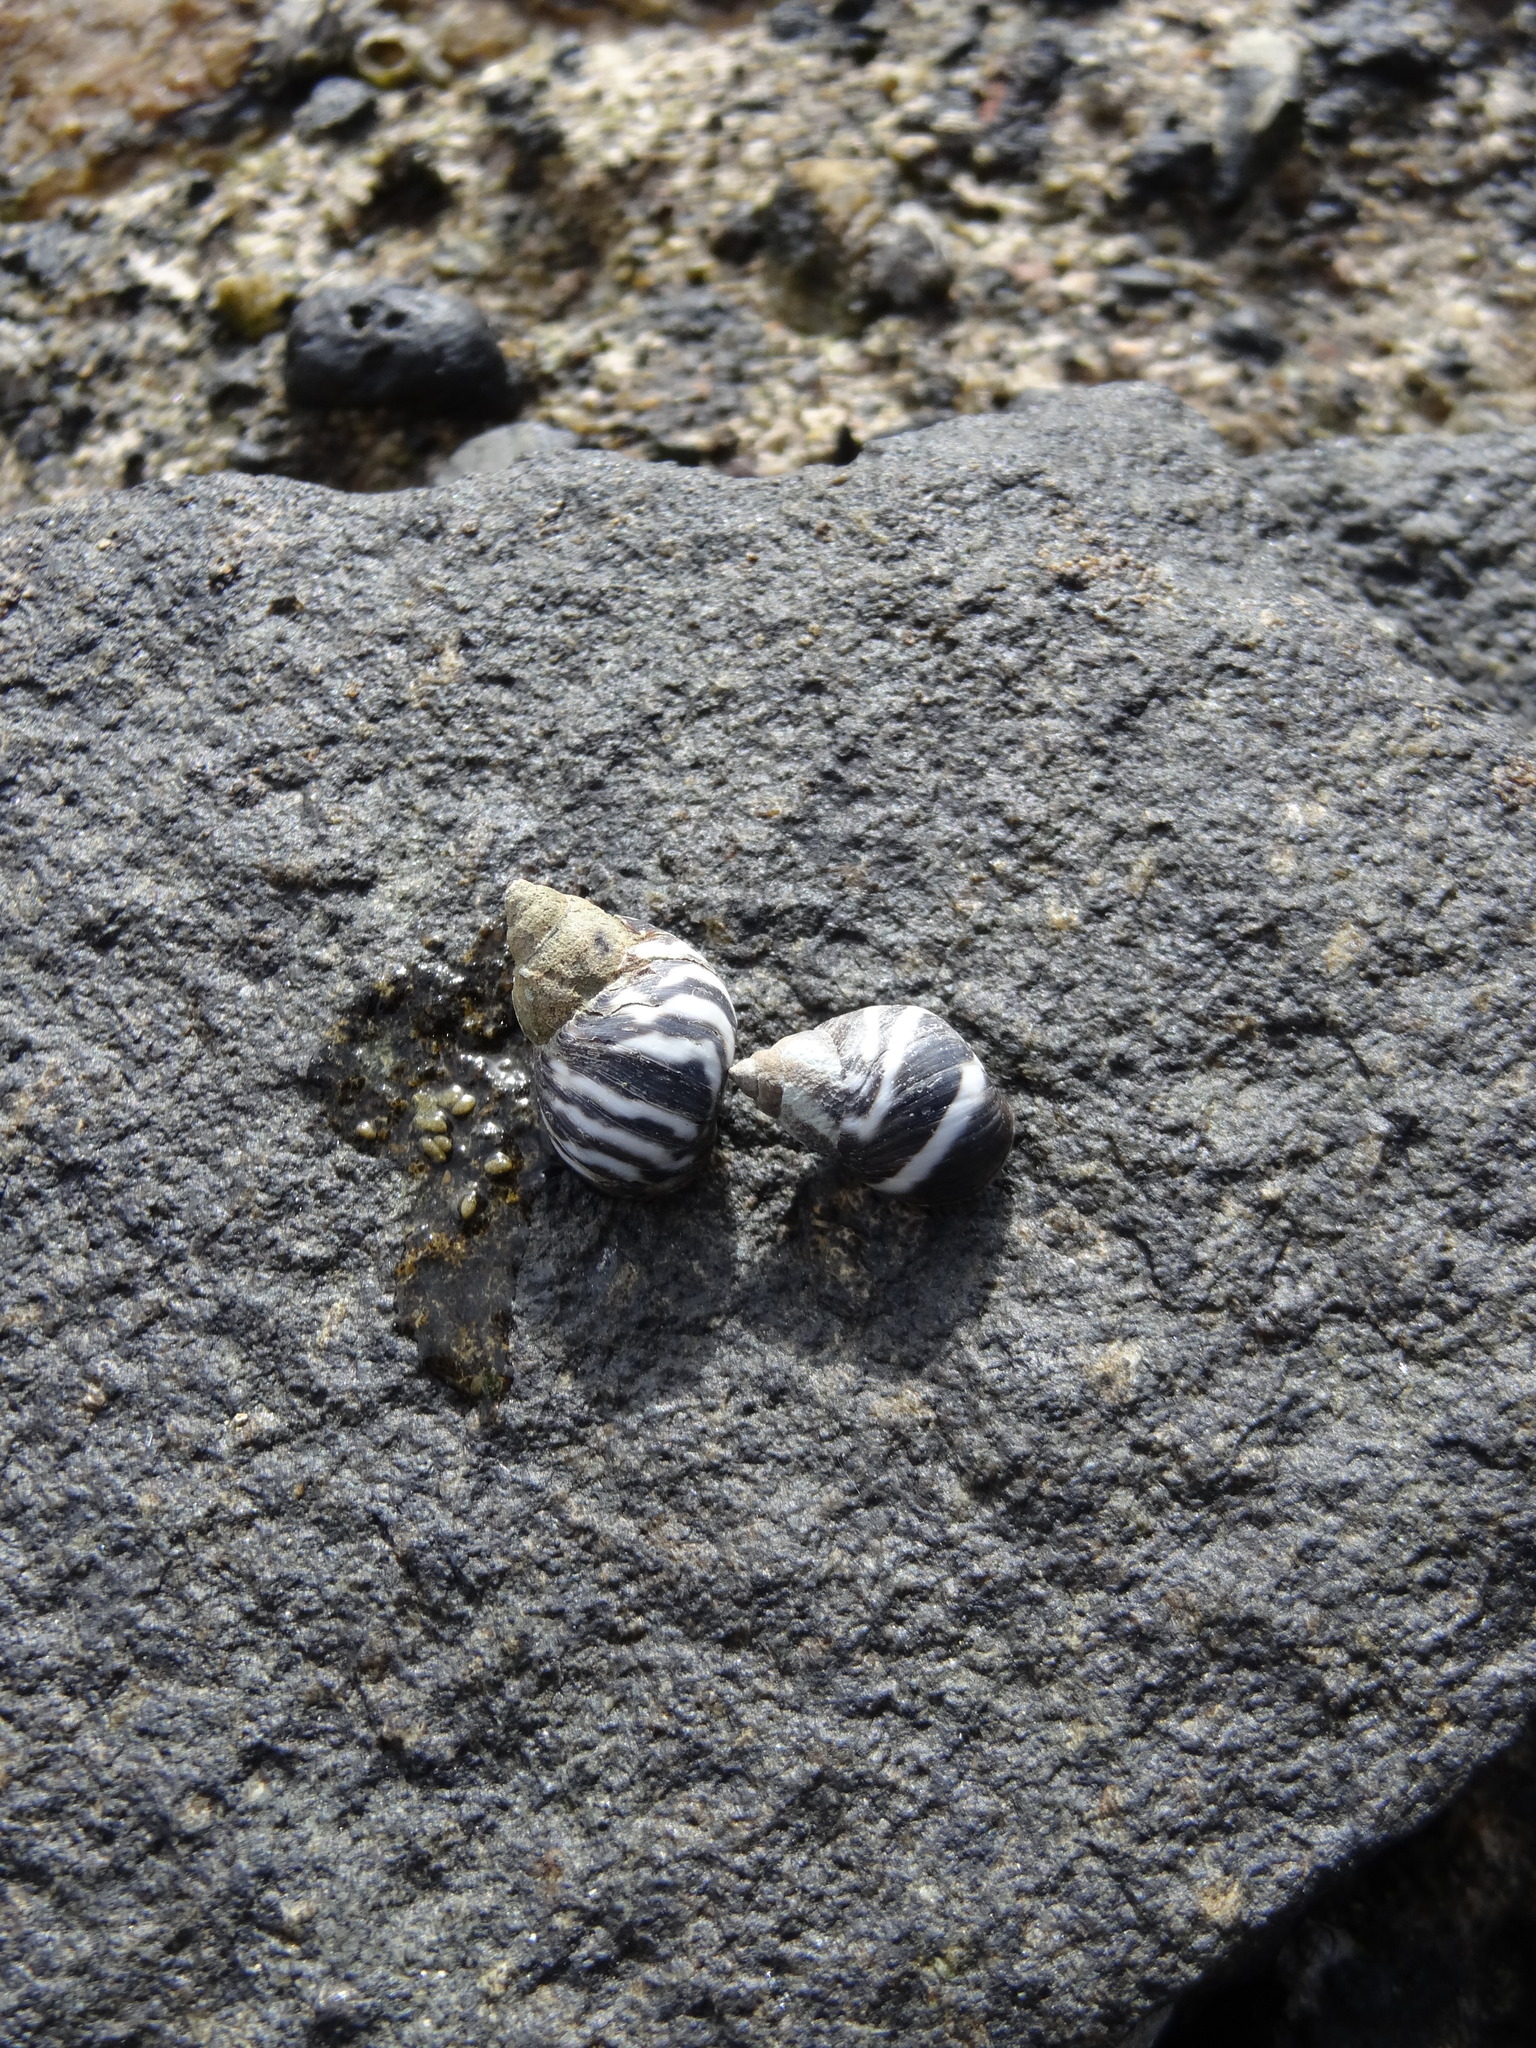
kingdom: Animalia
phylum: Mollusca
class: Gastropoda
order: Littorinimorpha
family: Littorinidae
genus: Echinolittorina
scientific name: Echinolittorina peruviana
